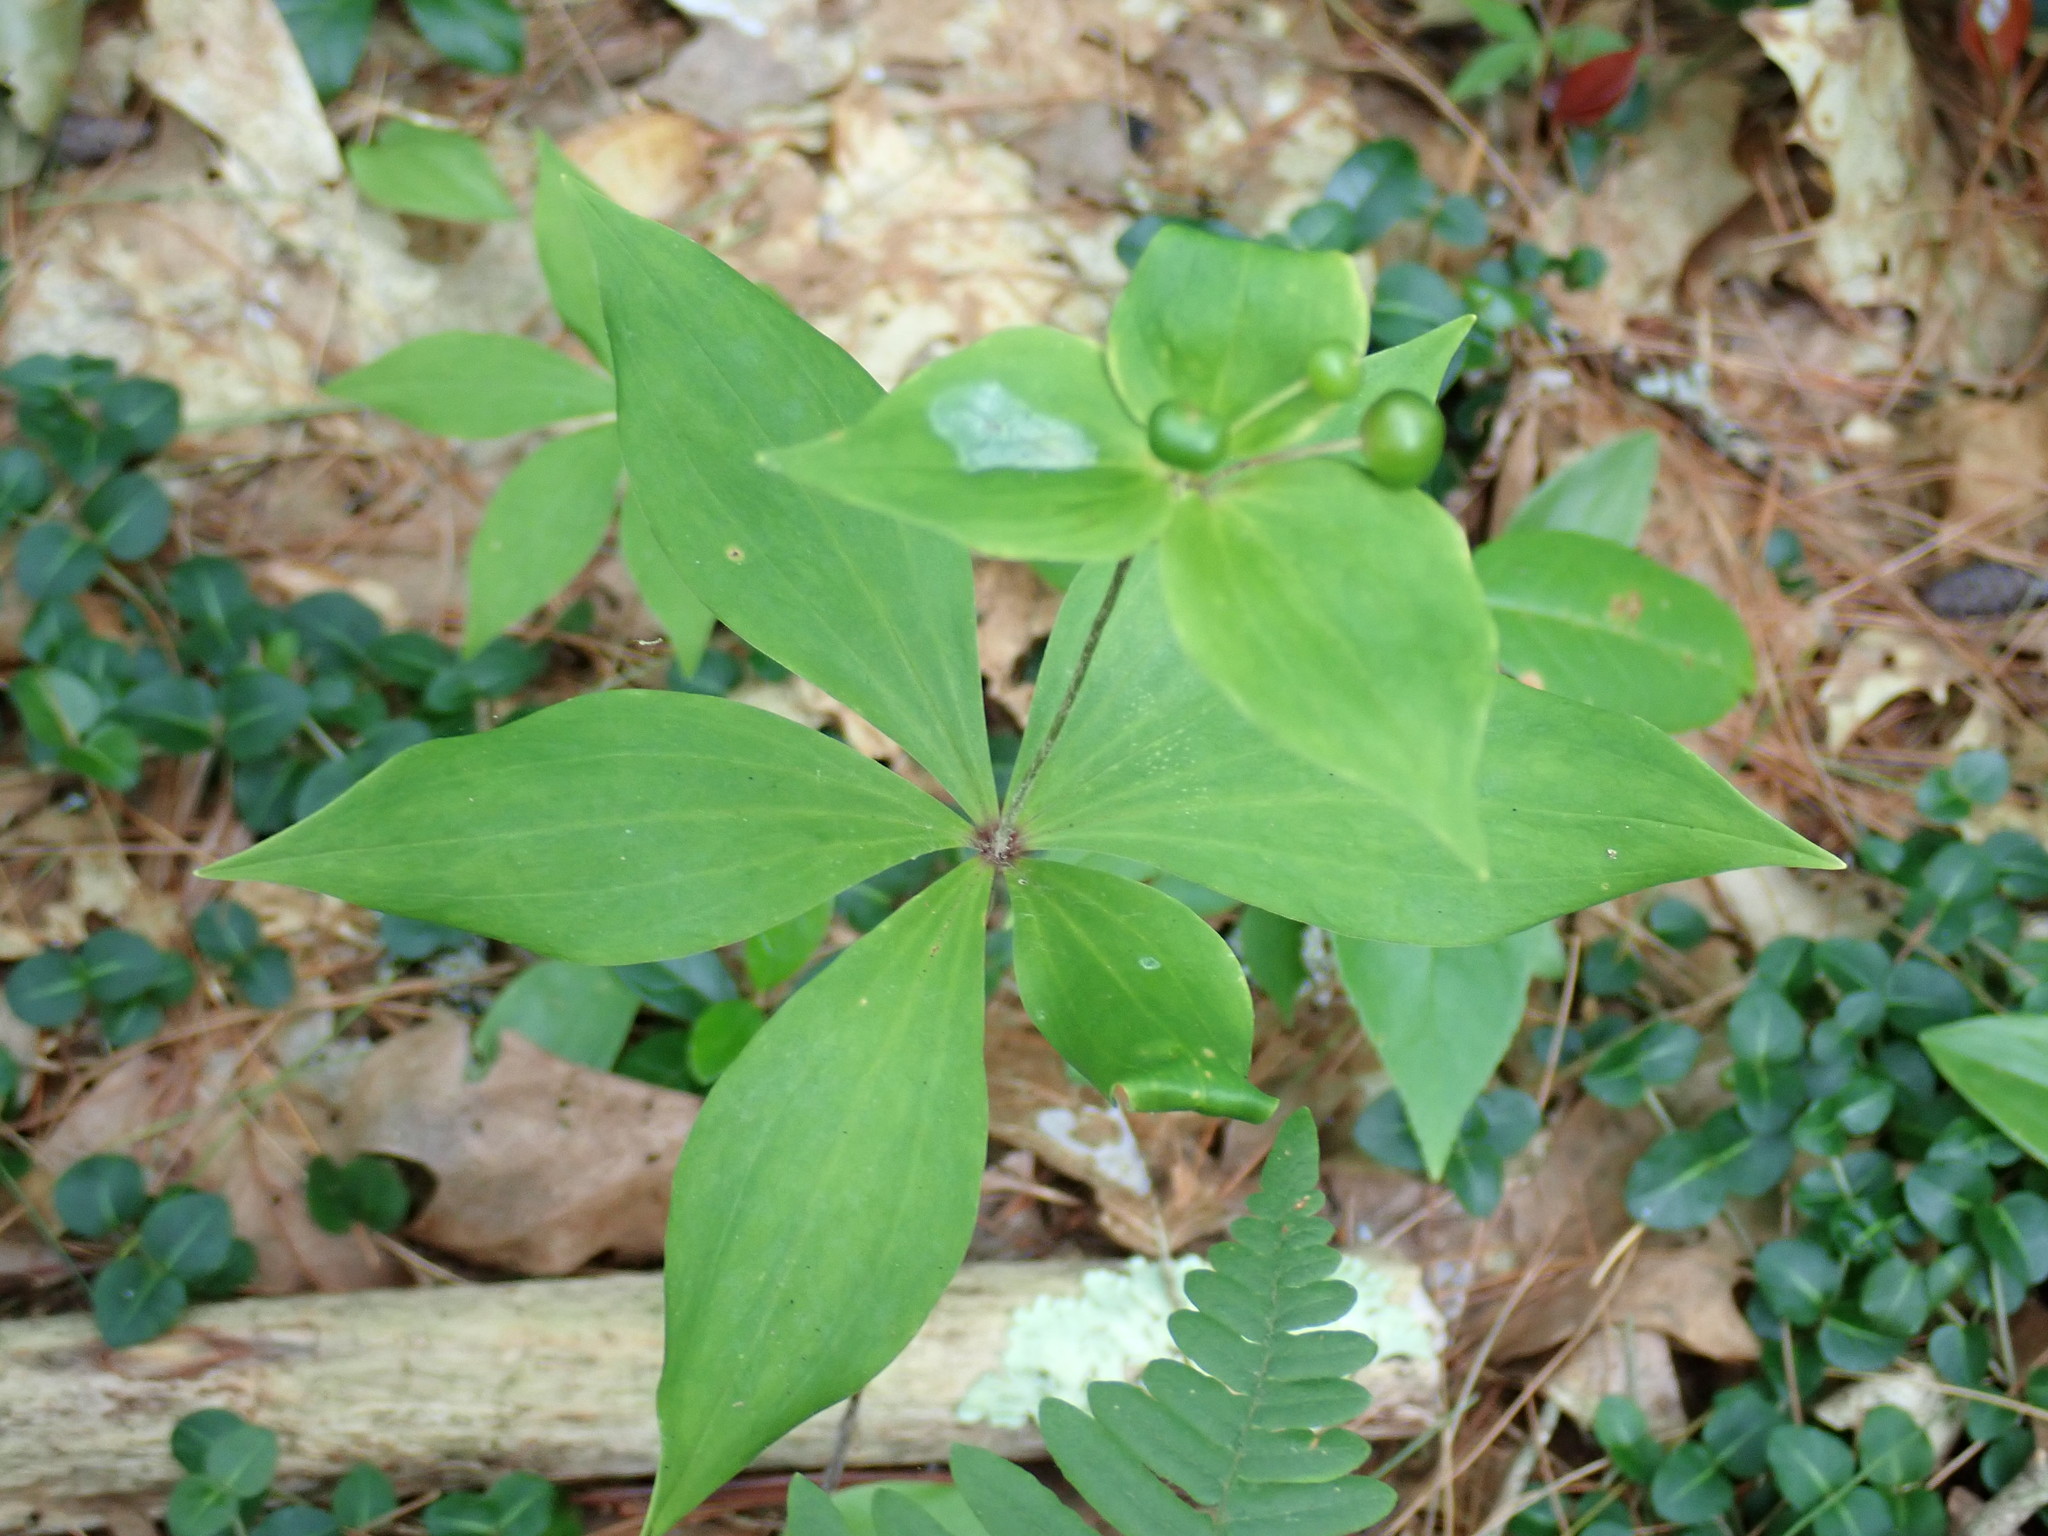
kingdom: Plantae
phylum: Tracheophyta
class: Liliopsida
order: Liliales
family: Liliaceae
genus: Medeola
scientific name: Medeola virginiana
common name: Indian cucumber-root
